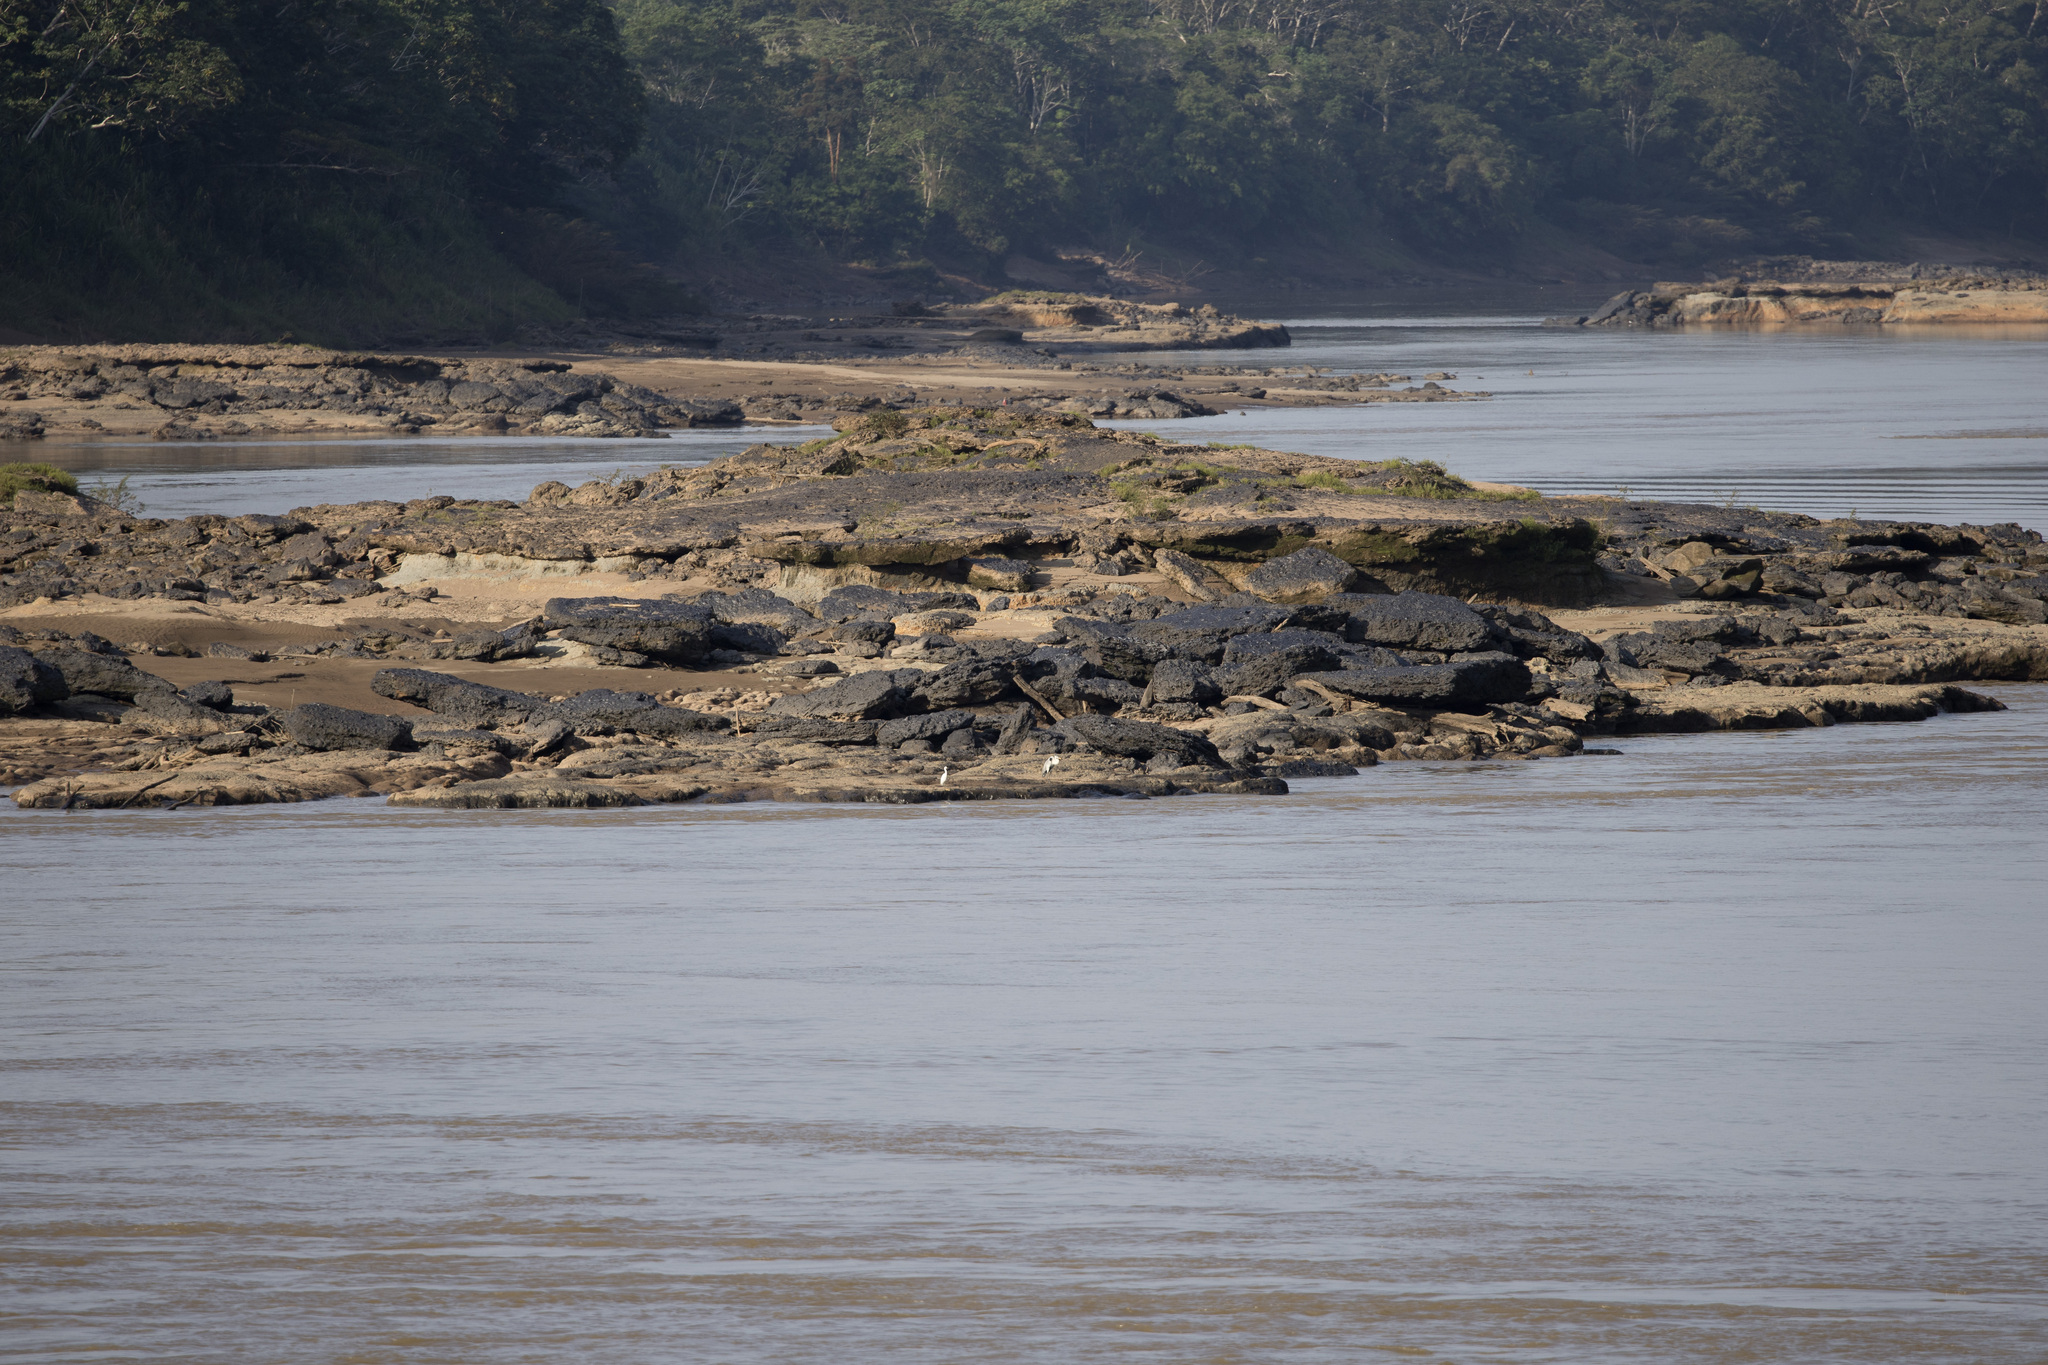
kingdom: Animalia
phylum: Chordata
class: Aves
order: Pelecaniformes
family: Ardeidae
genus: Ardea
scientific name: Ardea cocoi
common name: Cocoi heron
